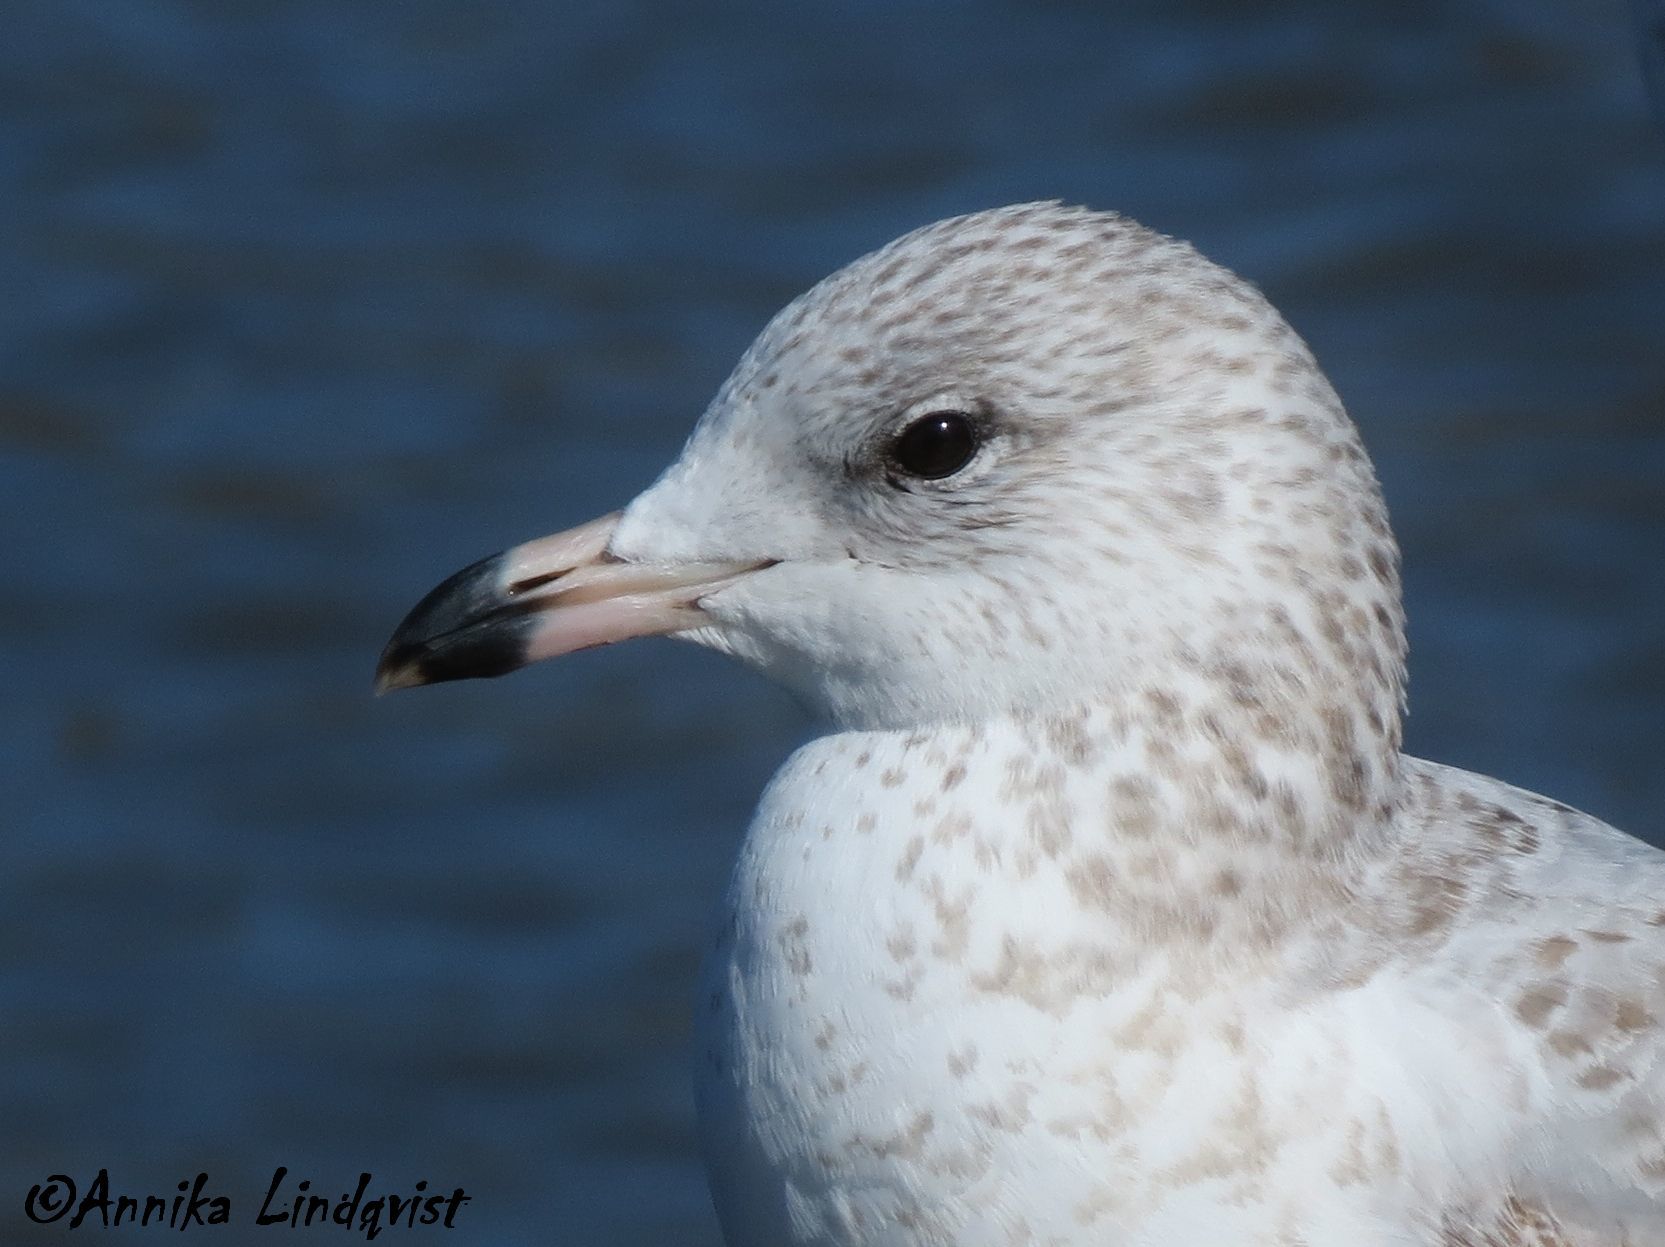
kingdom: Animalia
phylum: Chordata
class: Aves
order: Charadriiformes
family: Laridae
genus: Larus
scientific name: Larus delawarensis
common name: Ring-billed gull
